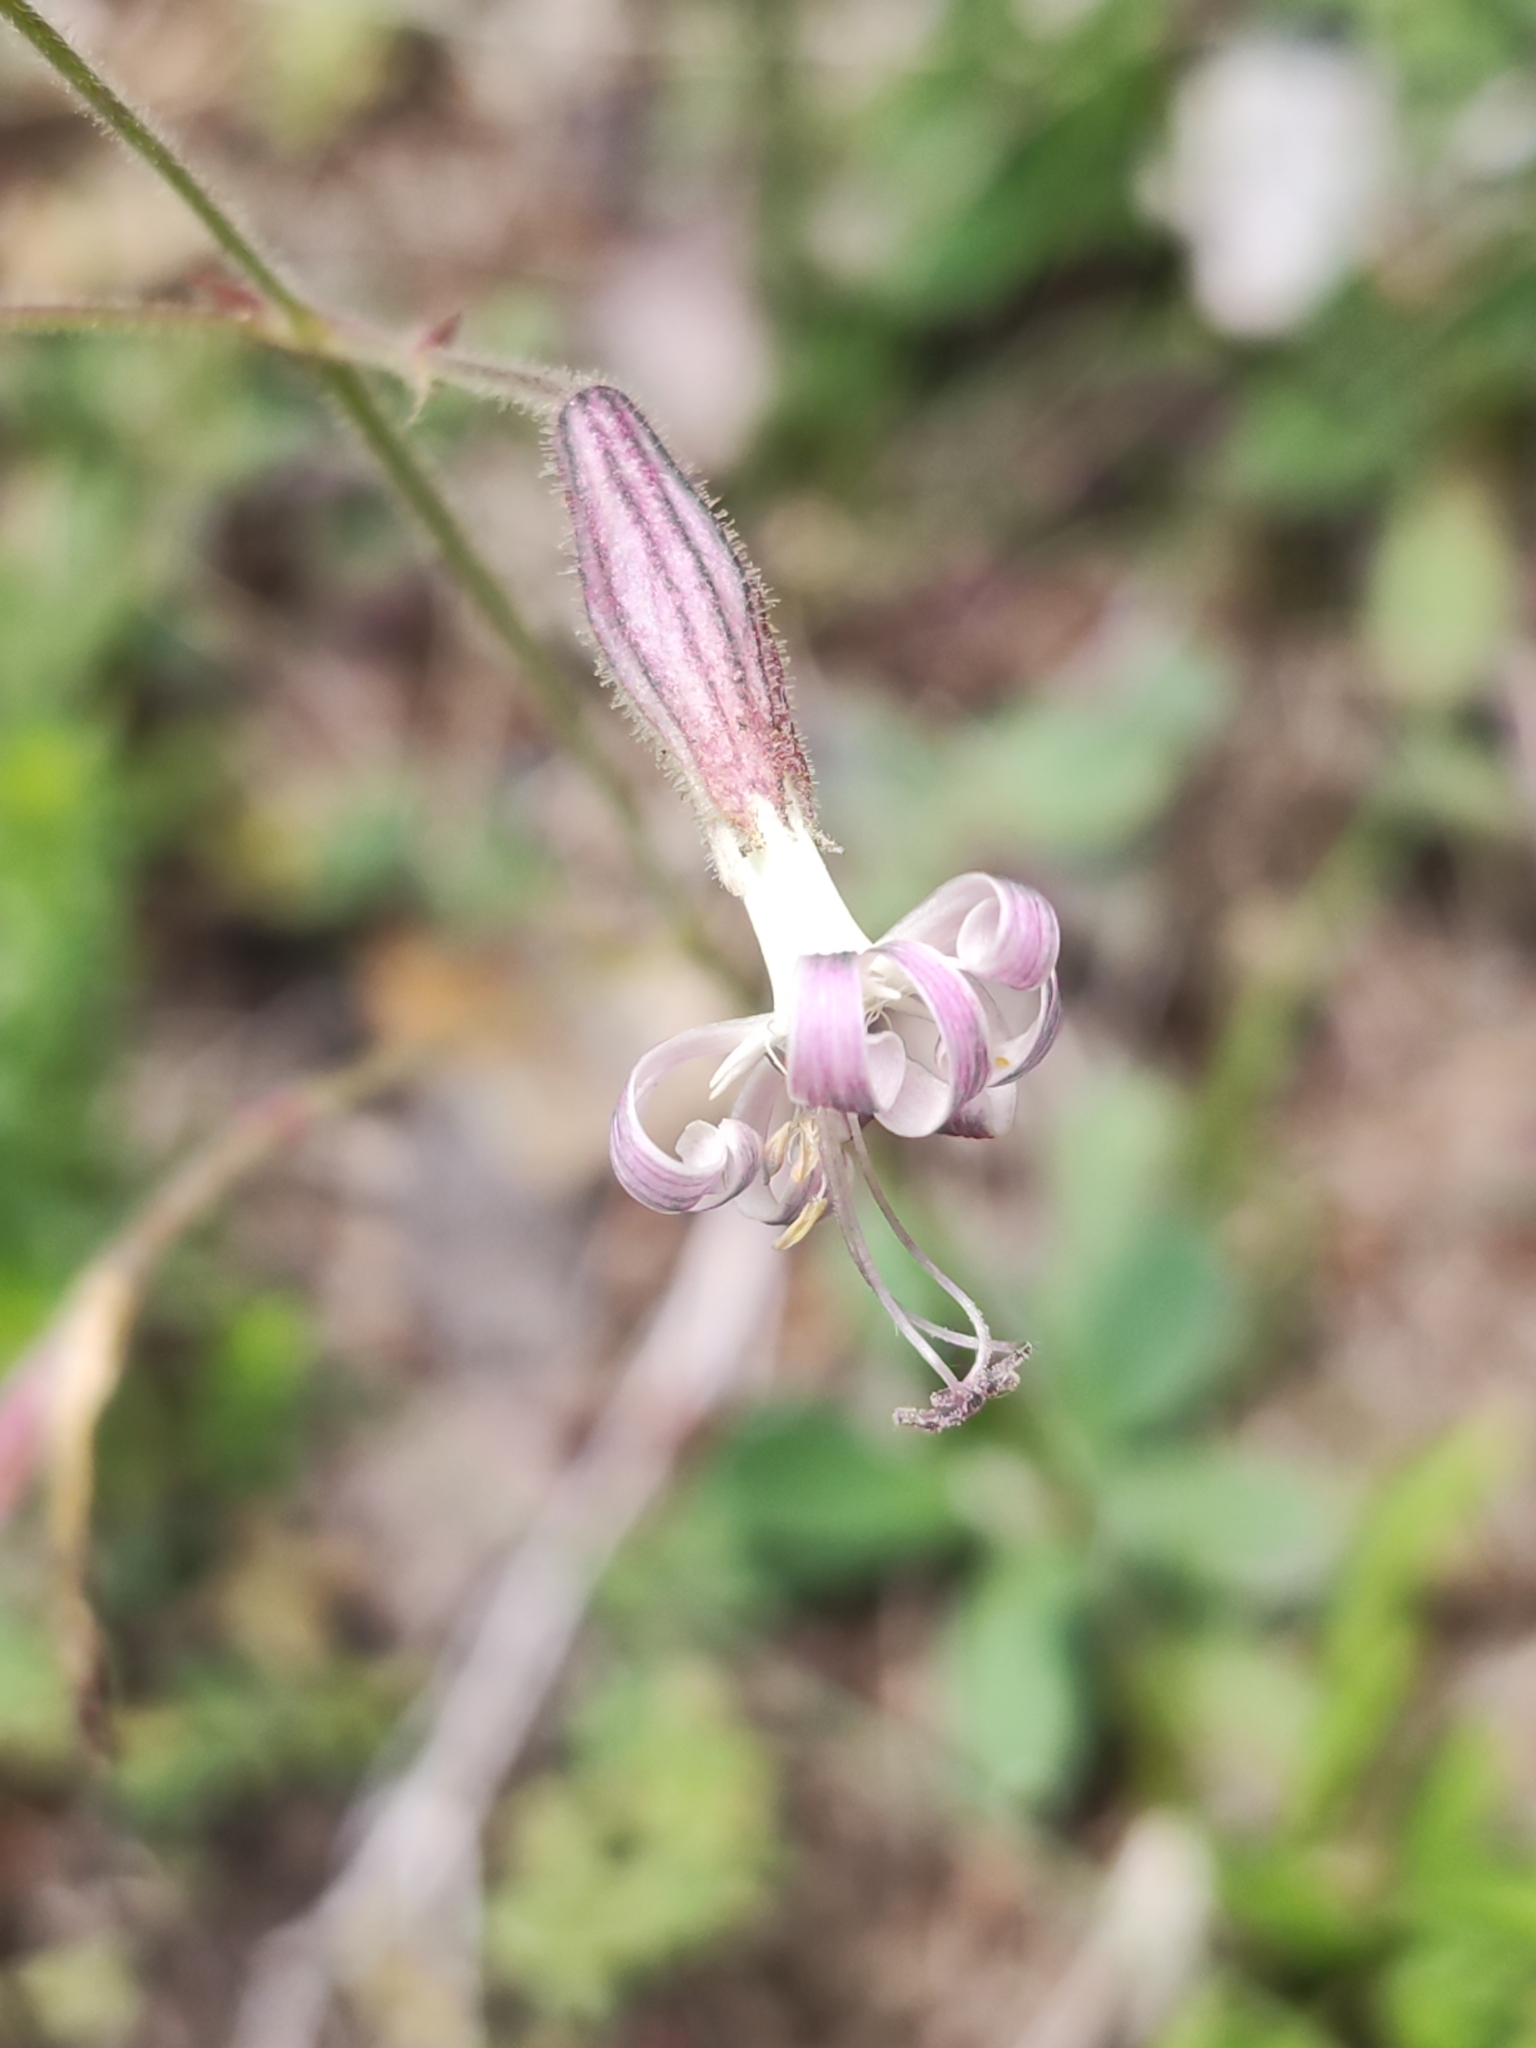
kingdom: Plantae
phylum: Tracheophyta
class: Magnoliopsida
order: Caryophyllales
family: Caryophyllaceae
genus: Silene
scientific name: Silene nutans
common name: Nottingham catchfly
